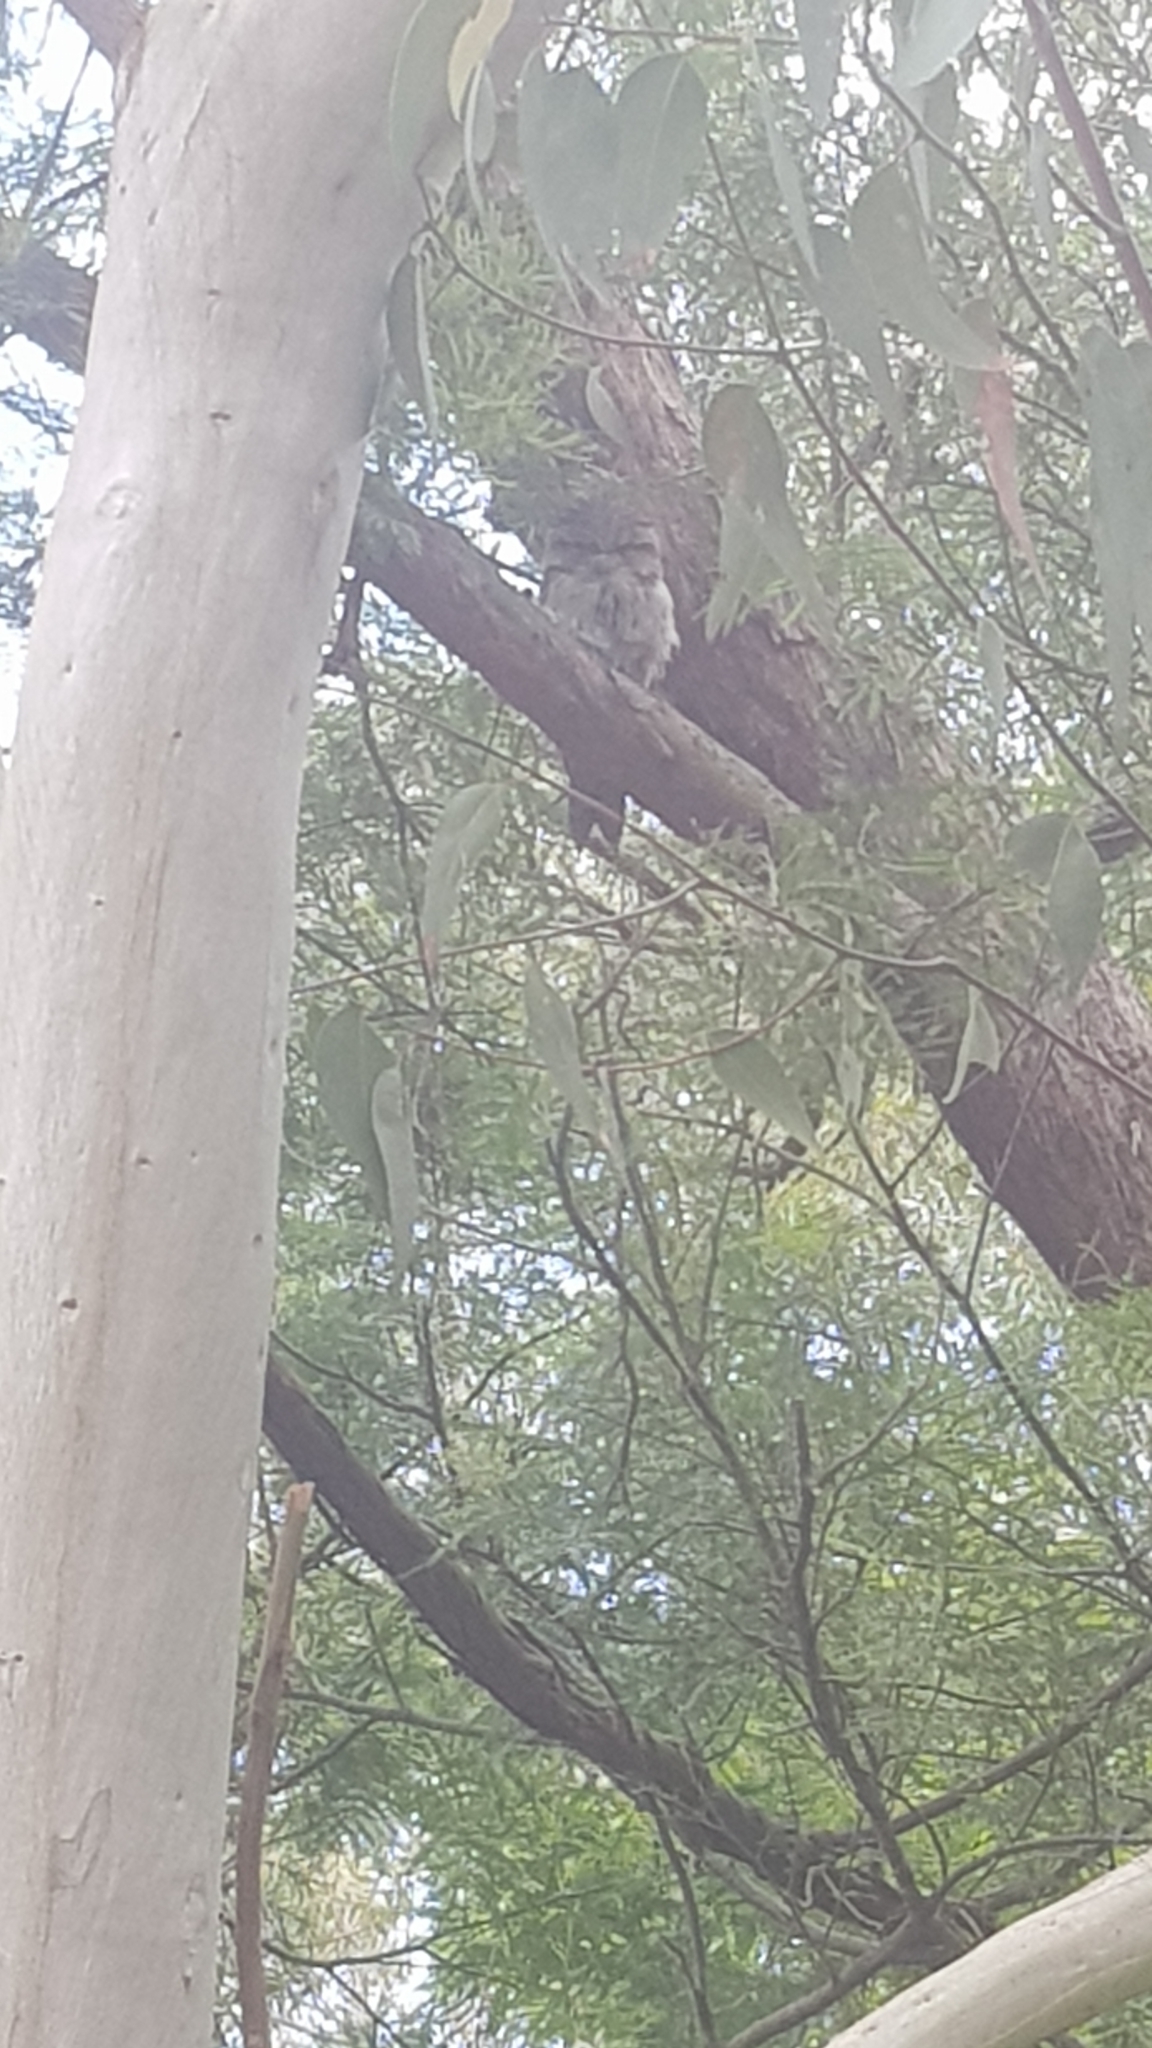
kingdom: Animalia
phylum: Chordata
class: Aves
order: Caprimulgiformes
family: Podargidae
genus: Podargus
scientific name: Podargus strigoides
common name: Tawny frogmouth
